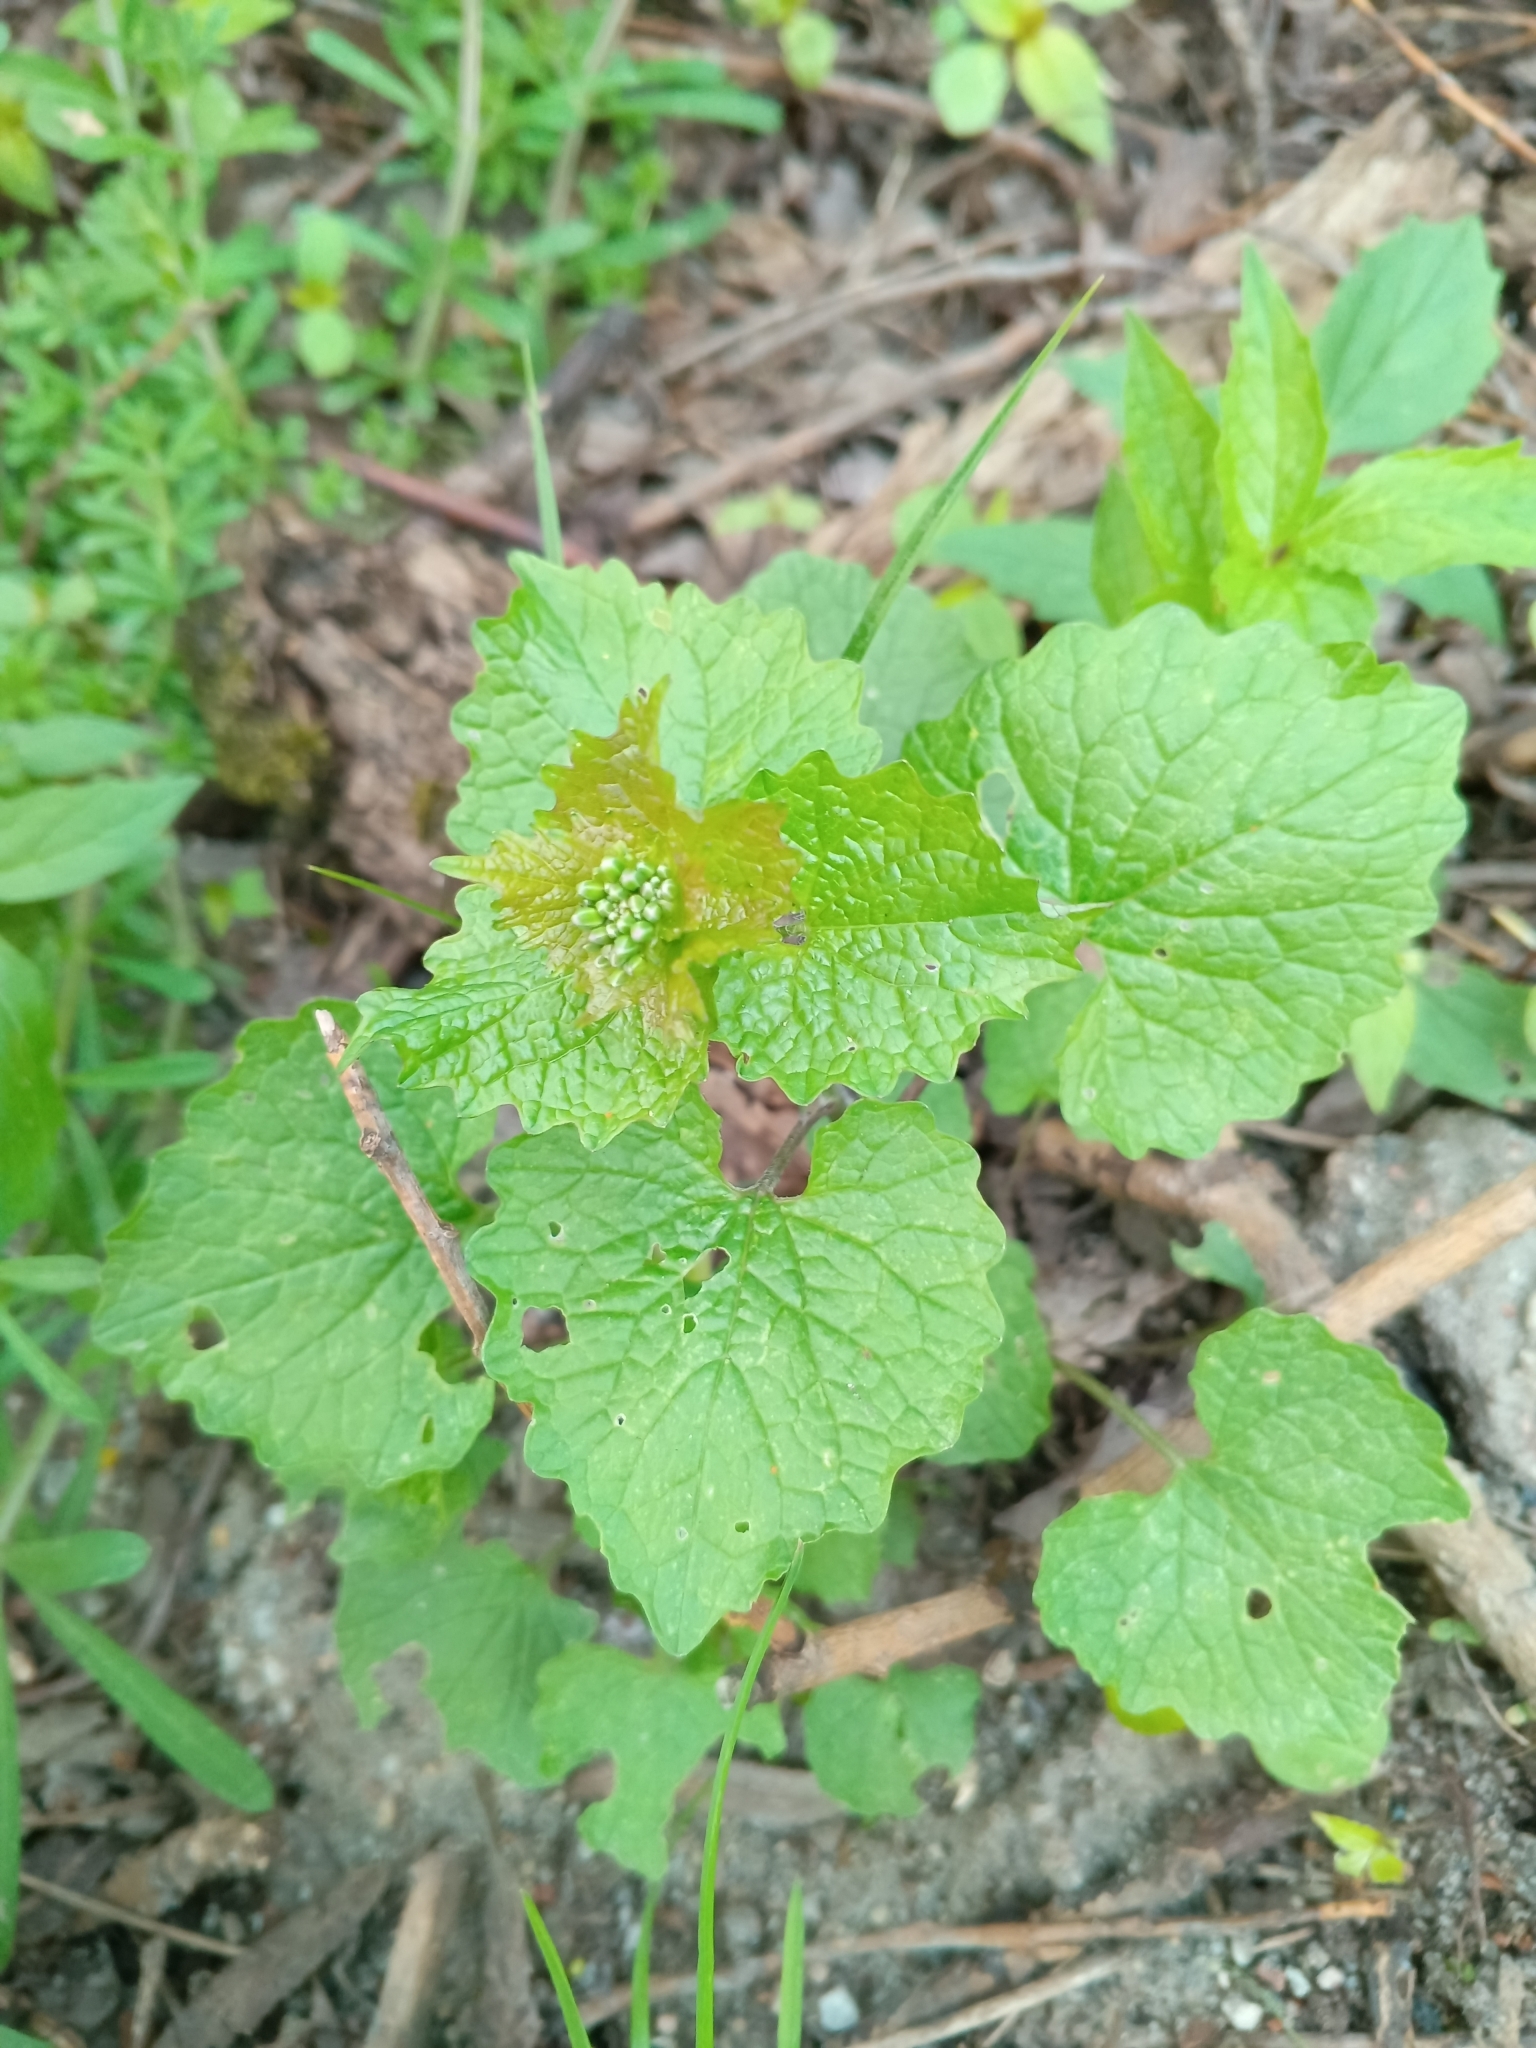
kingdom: Plantae
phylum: Tracheophyta
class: Magnoliopsida
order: Brassicales
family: Brassicaceae
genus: Alliaria
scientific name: Alliaria petiolata
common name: Garlic mustard
